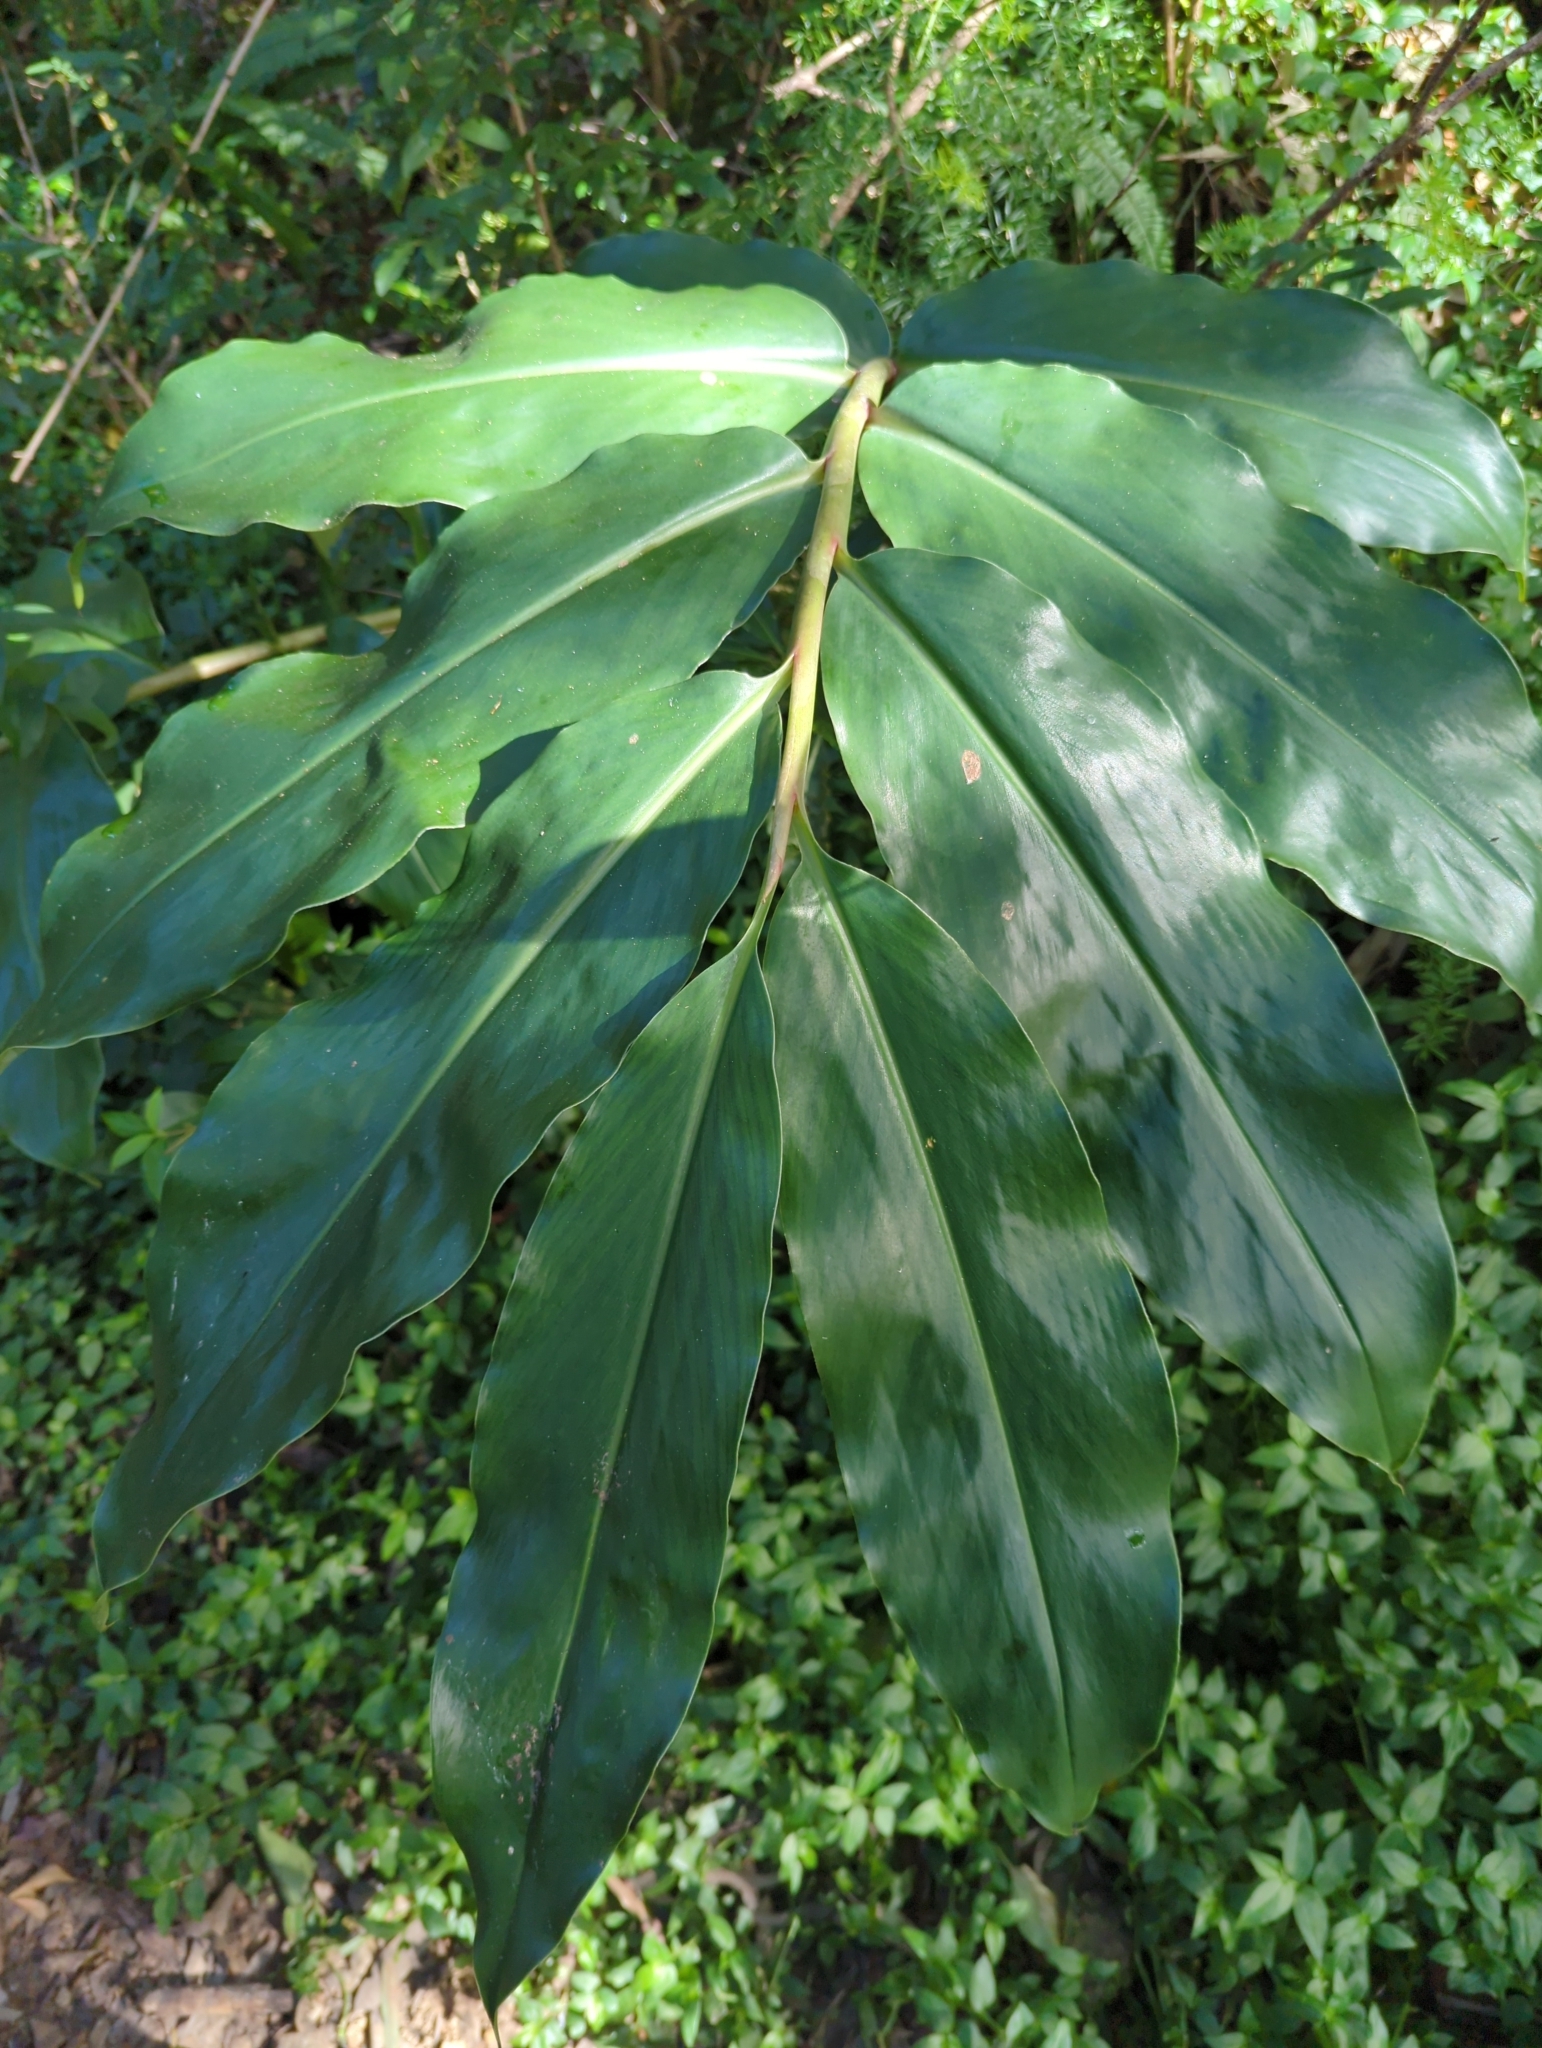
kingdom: Plantae
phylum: Tracheophyta
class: Liliopsida
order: Zingiberales
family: Zingiberaceae
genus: Hedychium
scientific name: Hedychium gardnerianum
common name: Himalayan ginger
